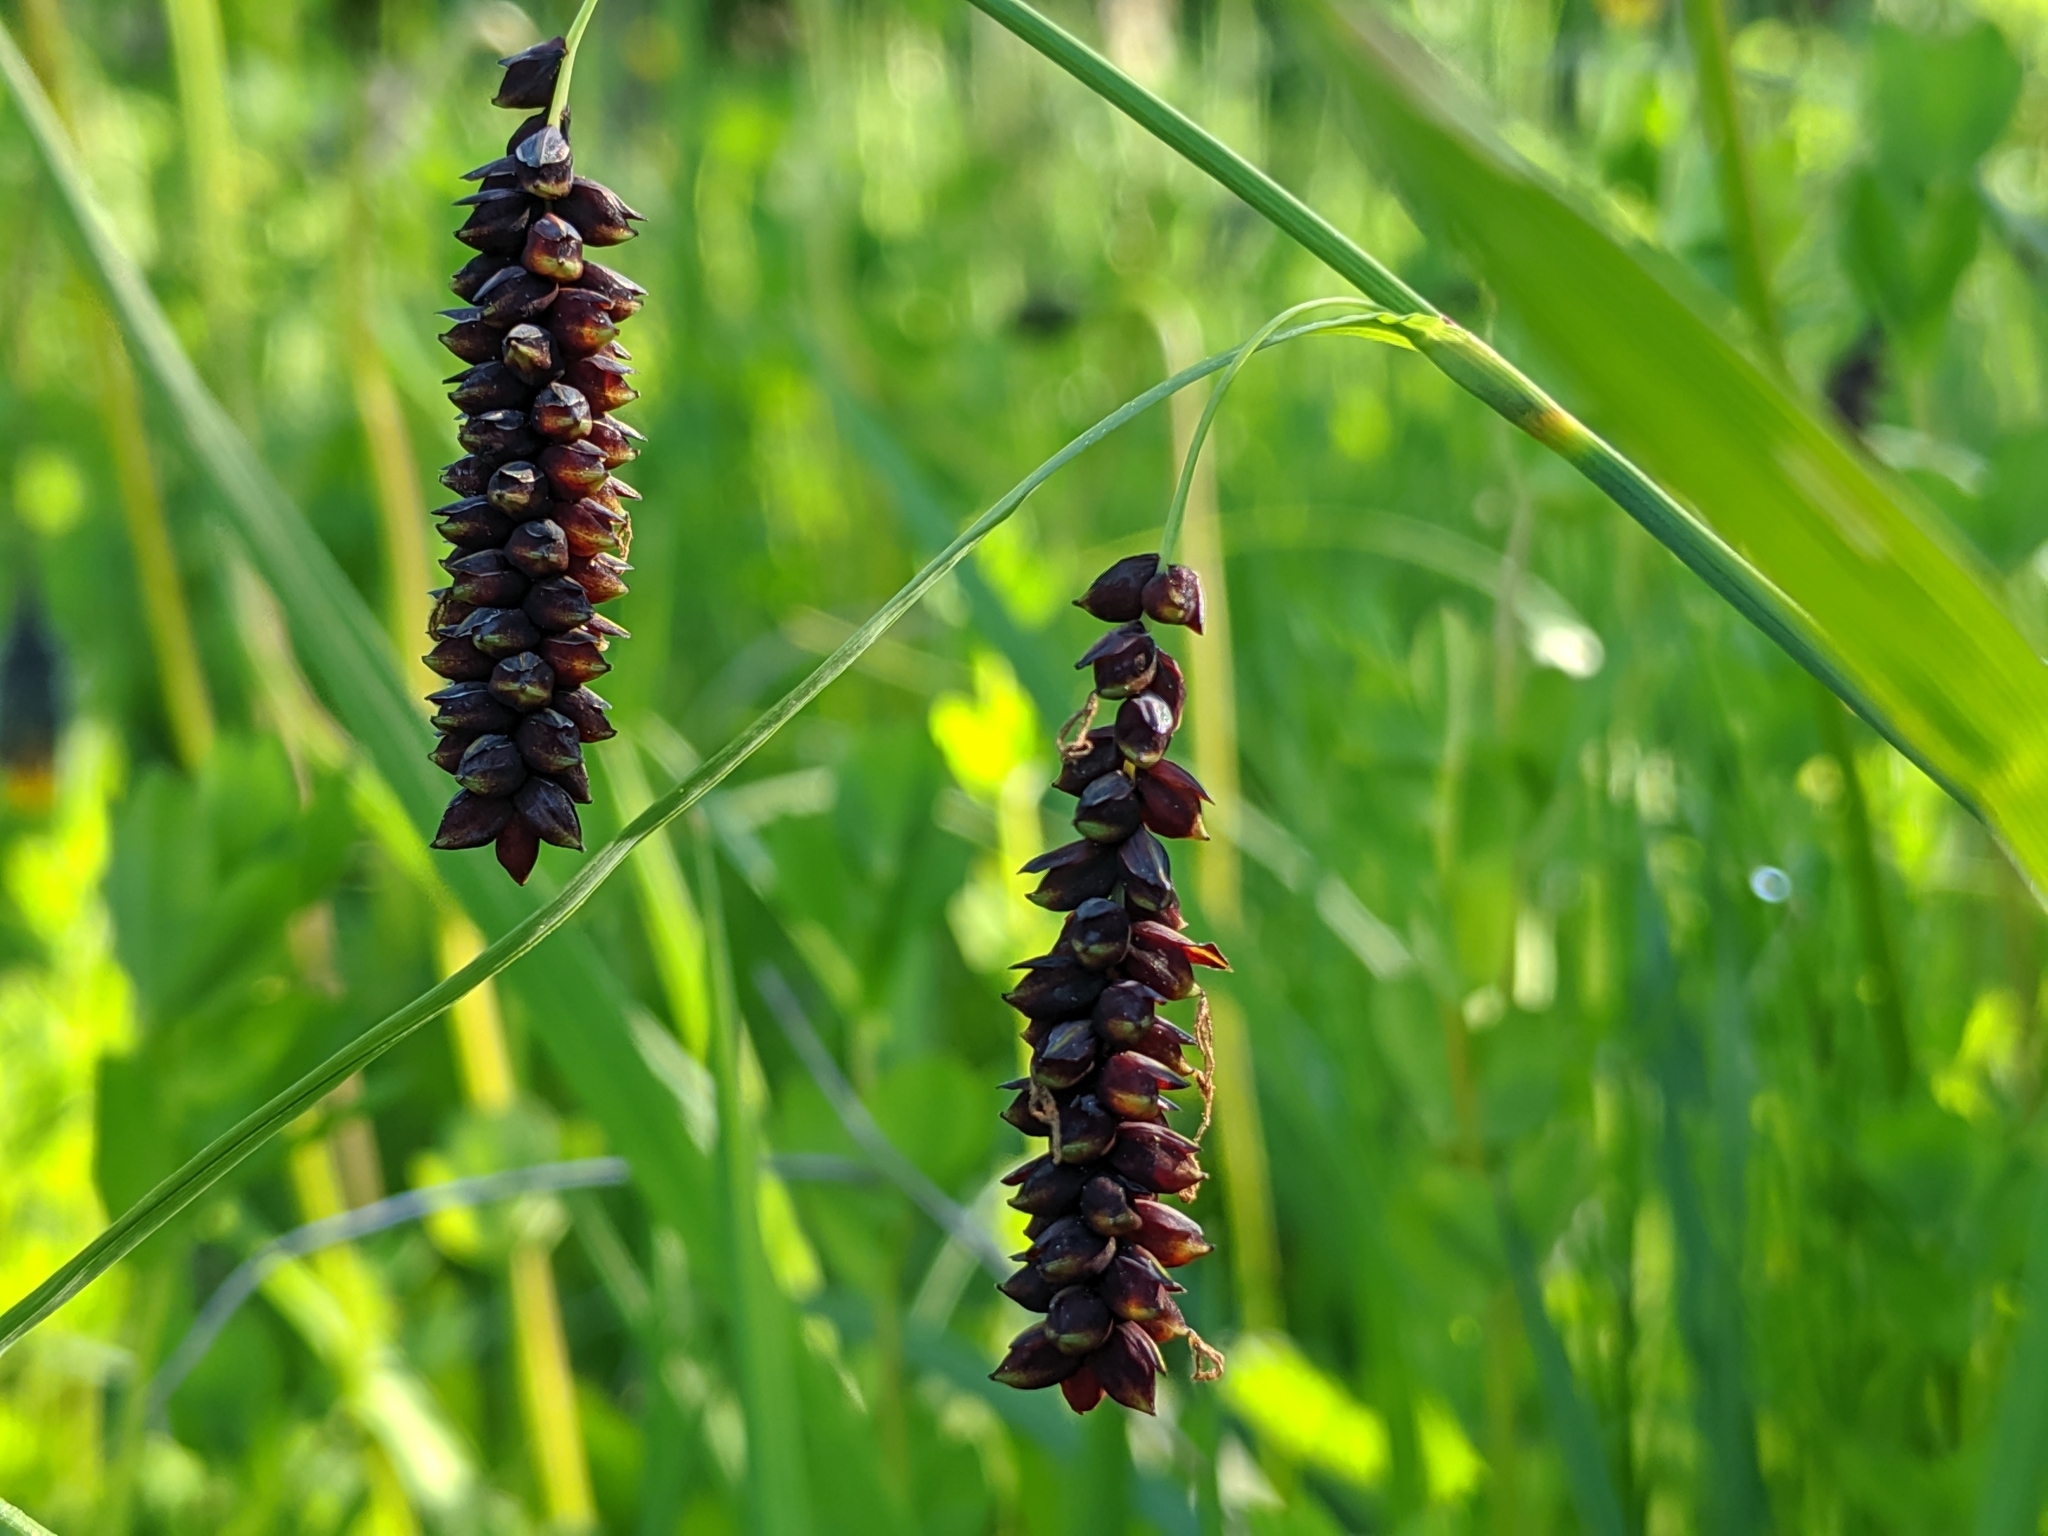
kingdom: Plantae
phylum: Tracheophyta
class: Liliopsida
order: Poales
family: Cyperaceae
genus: Carex
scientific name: Carex flacca
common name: Glaucous sedge
